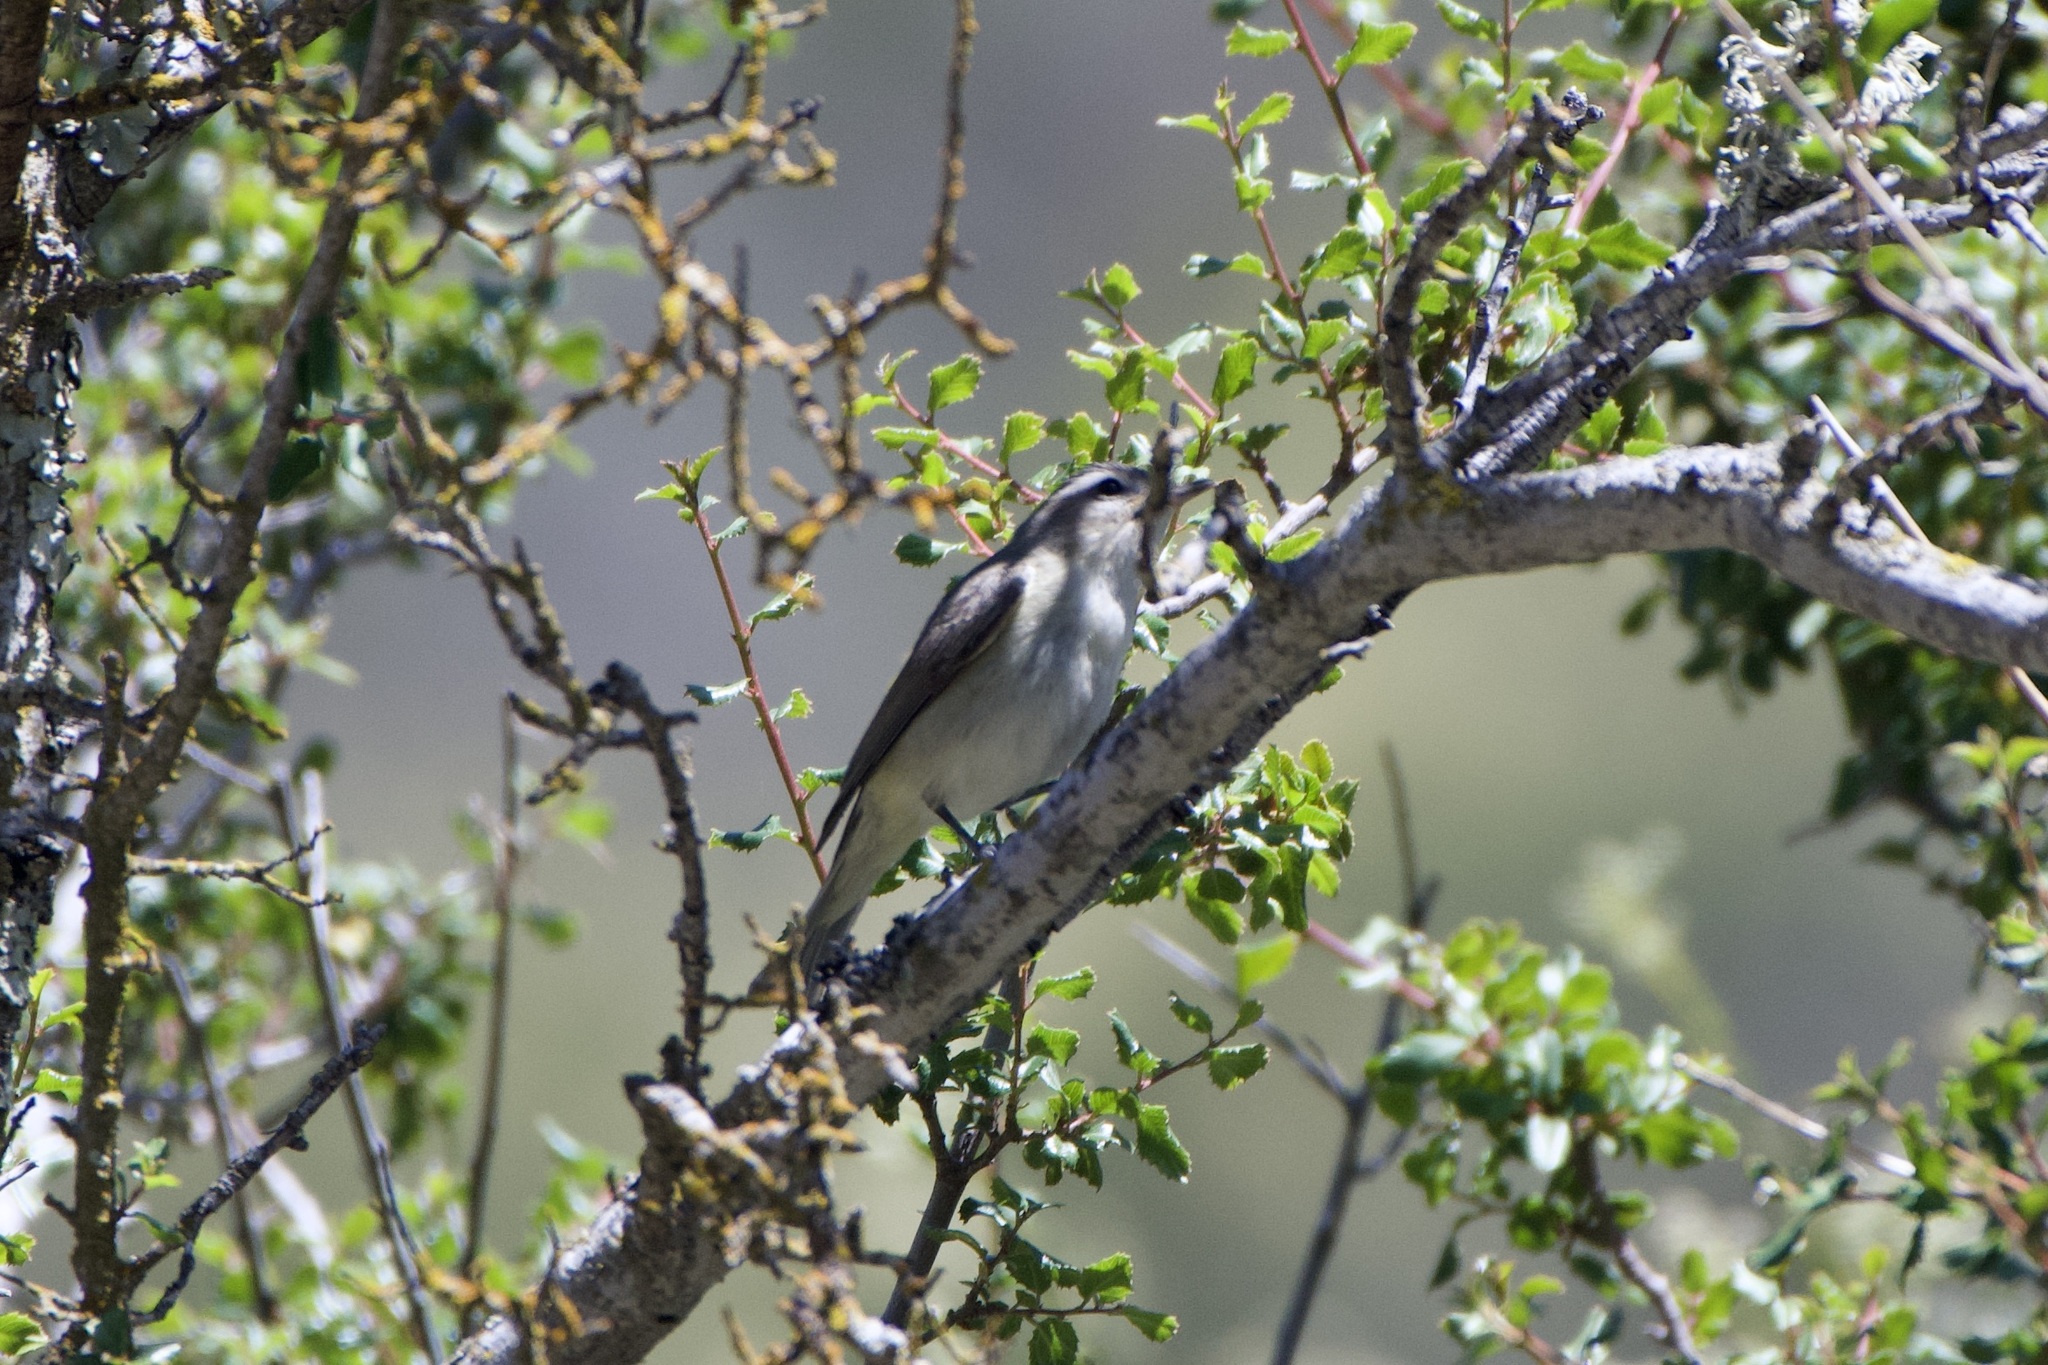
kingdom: Animalia
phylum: Chordata
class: Aves
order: Passeriformes
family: Vireonidae
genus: Vireo
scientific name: Vireo gilvus
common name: Warbling vireo
